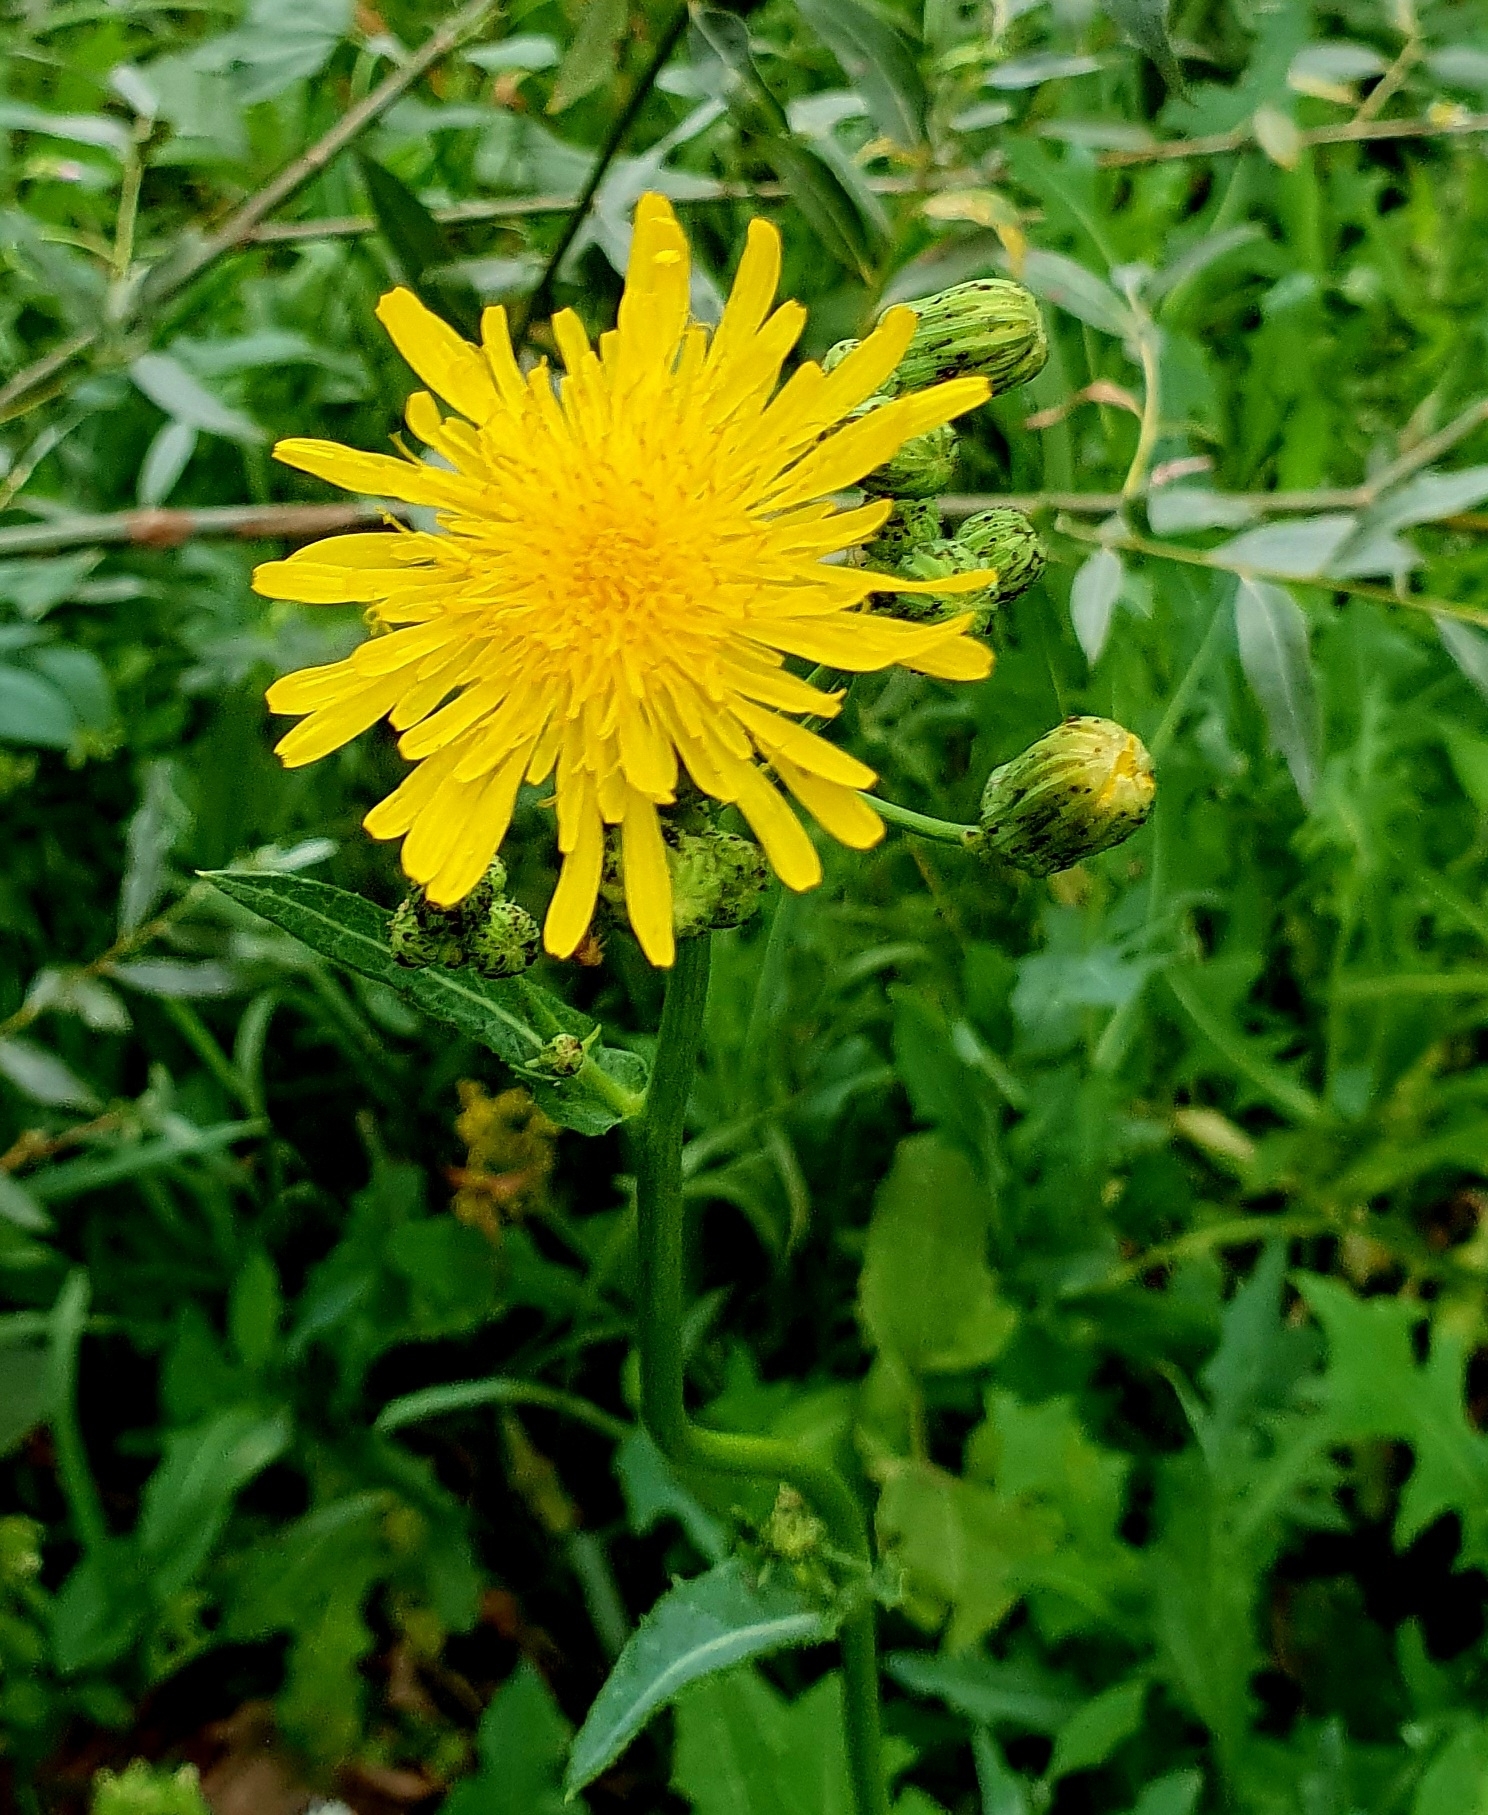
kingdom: Plantae
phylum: Tracheophyta
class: Magnoliopsida
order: Asterales
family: Asteraceae
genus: Sonchus
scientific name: Sonchus arvensis
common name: Perennial sow-thistle
